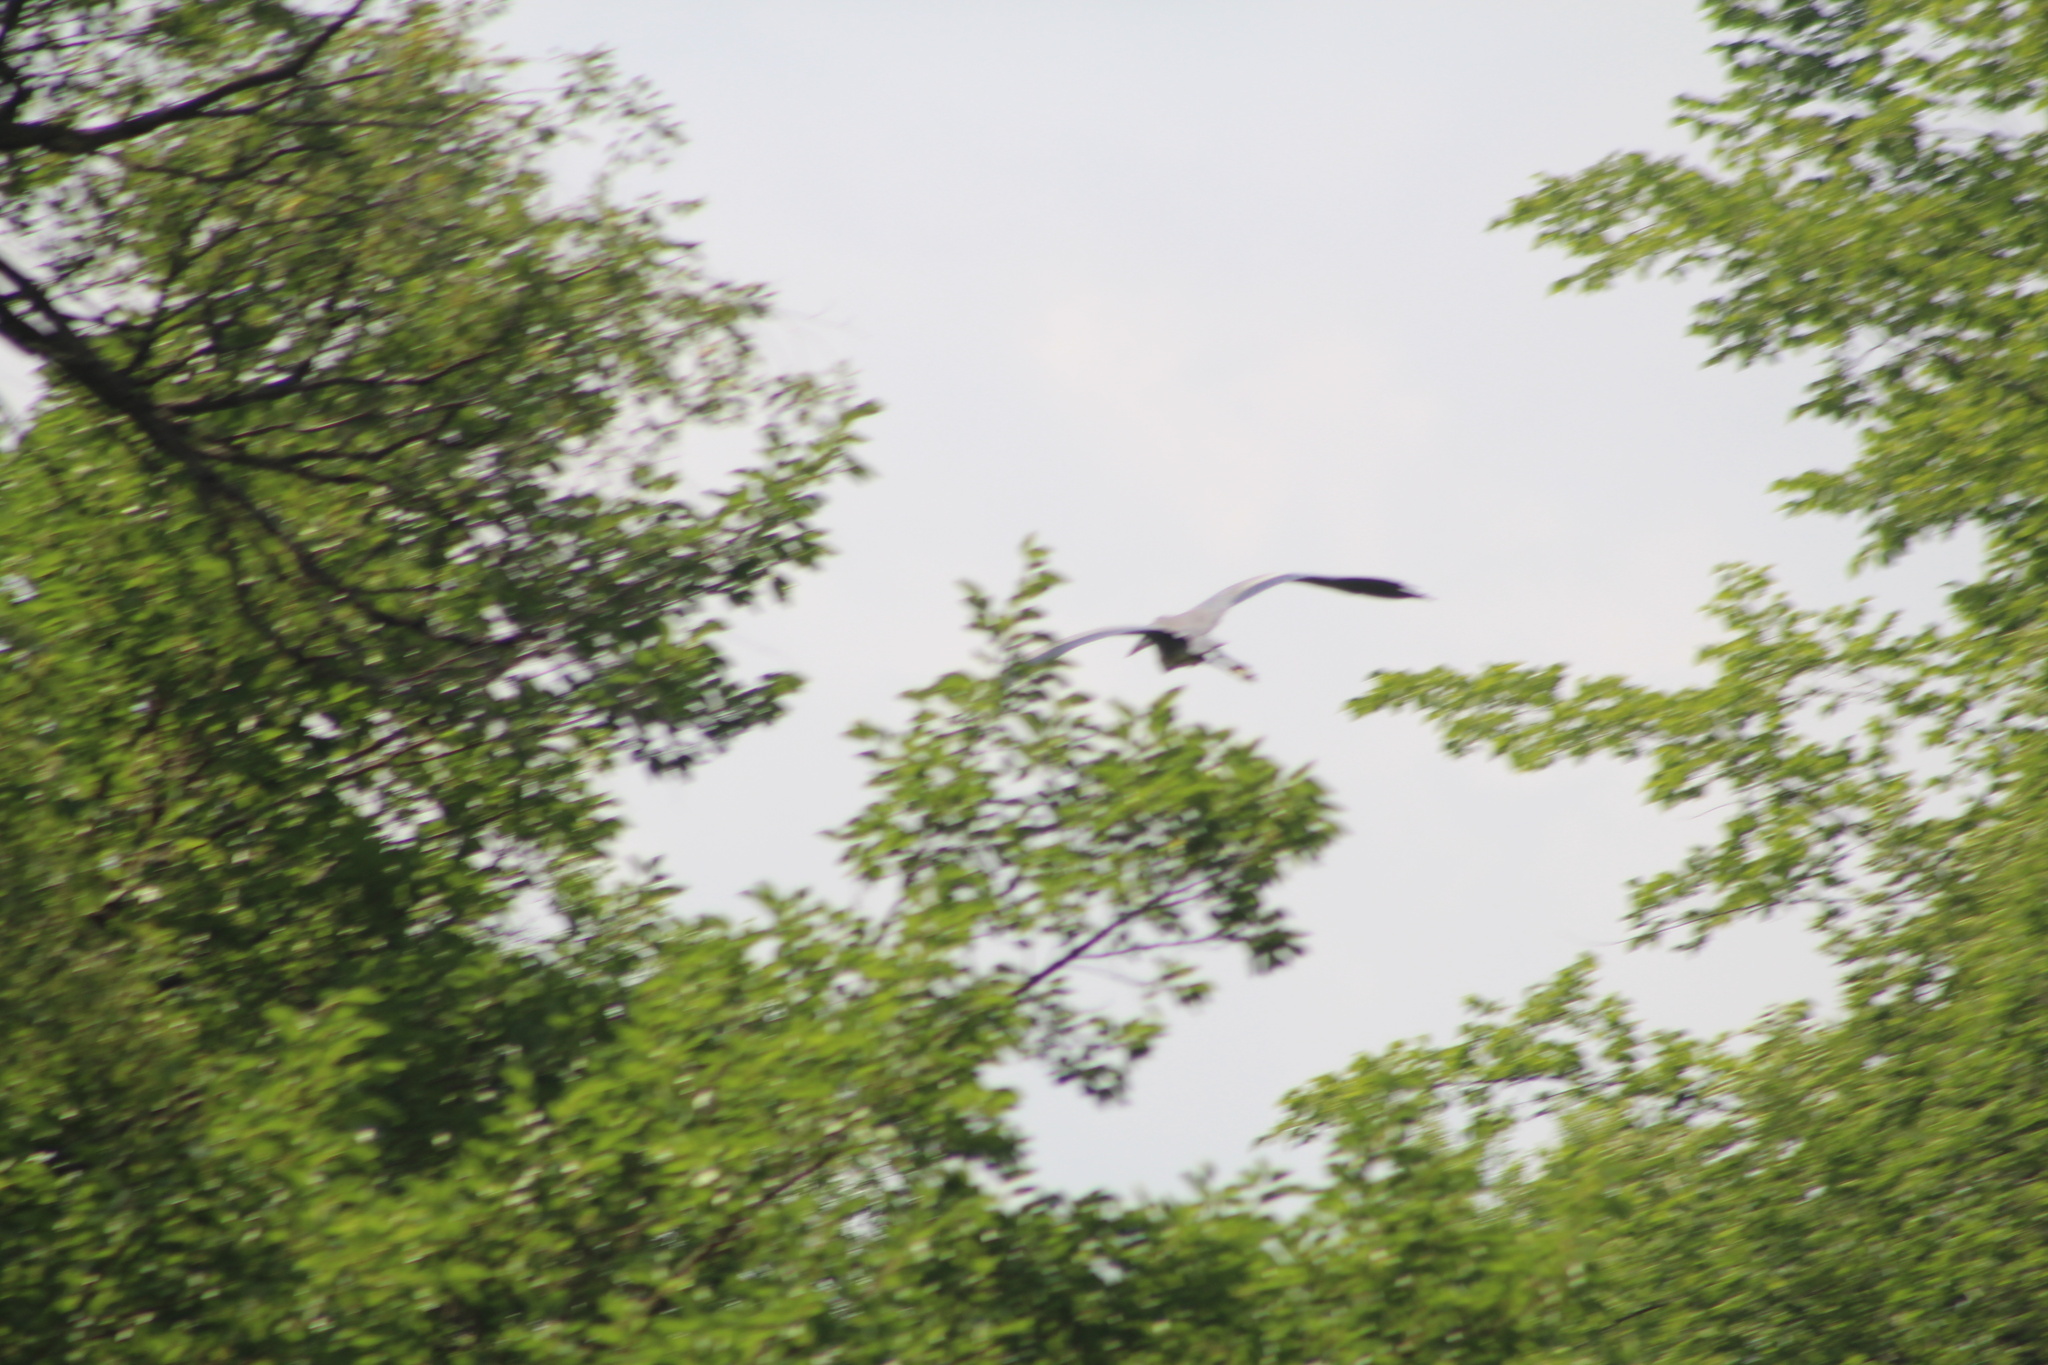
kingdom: Animalia
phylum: Chordata
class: Aves
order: Pelecaniformes
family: Ardeidae
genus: Ardea
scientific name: Ardea herodias
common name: Great blue heron
